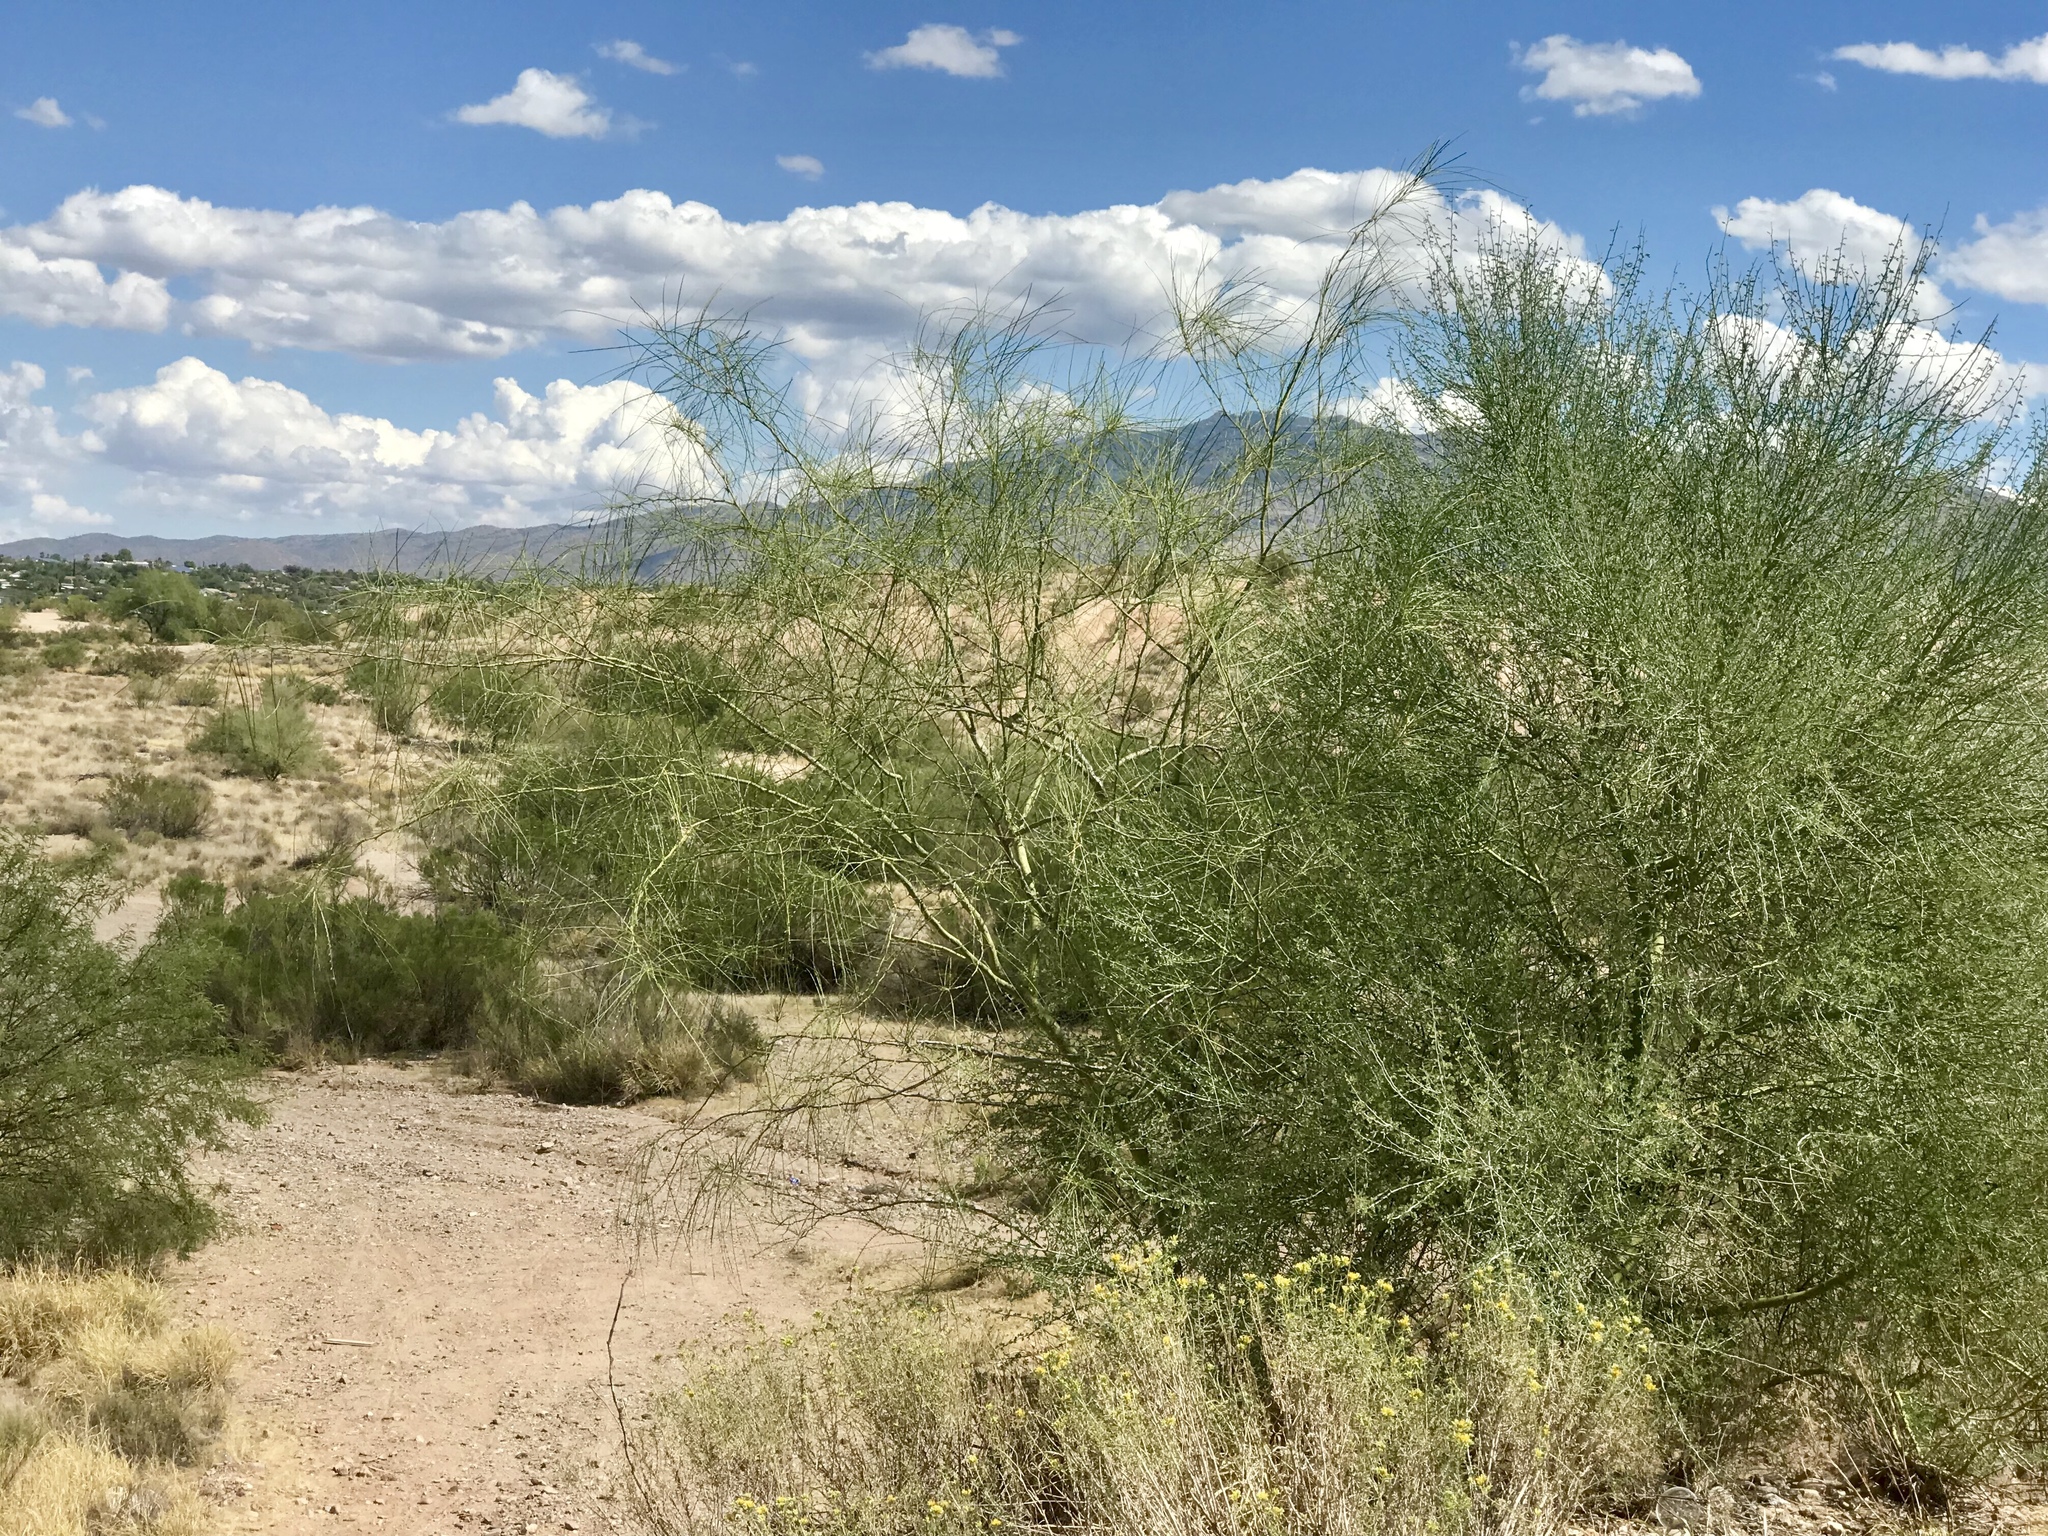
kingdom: Plantae
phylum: Tracheophyta
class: Magnoliopsida
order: Fabales
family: Fabaceae
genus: Parkinsonia
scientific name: Parkinsonia florida
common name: Blue paloverde
